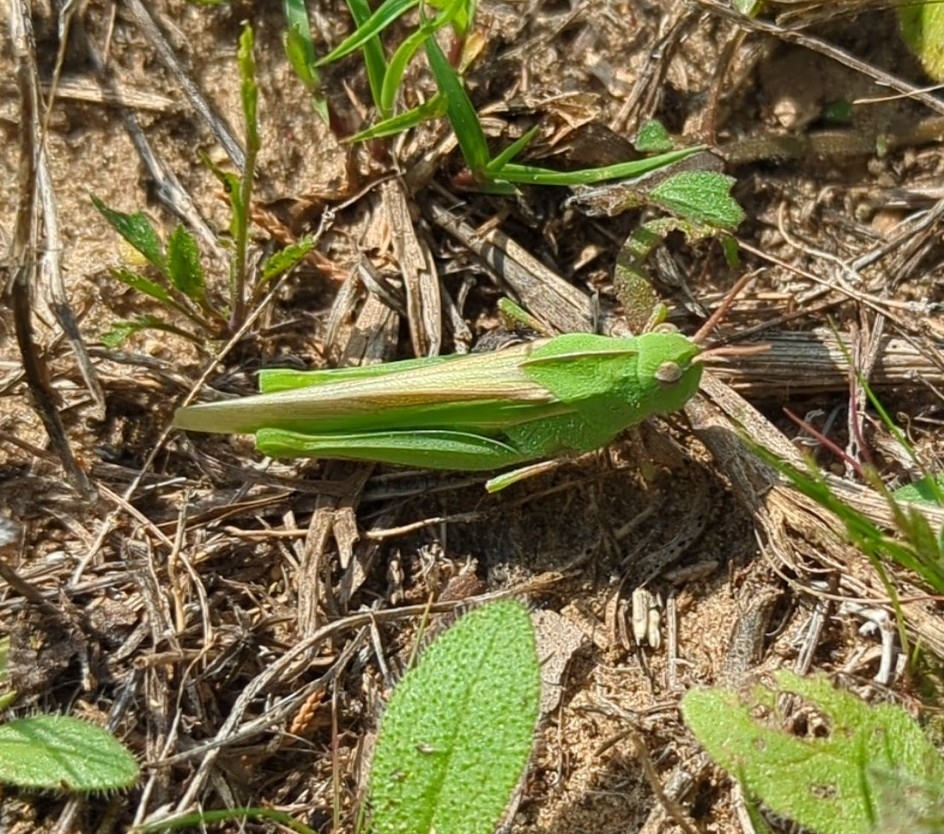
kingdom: Animalia
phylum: Arthropoda
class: Insecta
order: Orthoptera
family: Acrididae
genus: Chortophaga
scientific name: Chortophaga viridifasciata
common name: Green-striped grasshopper
